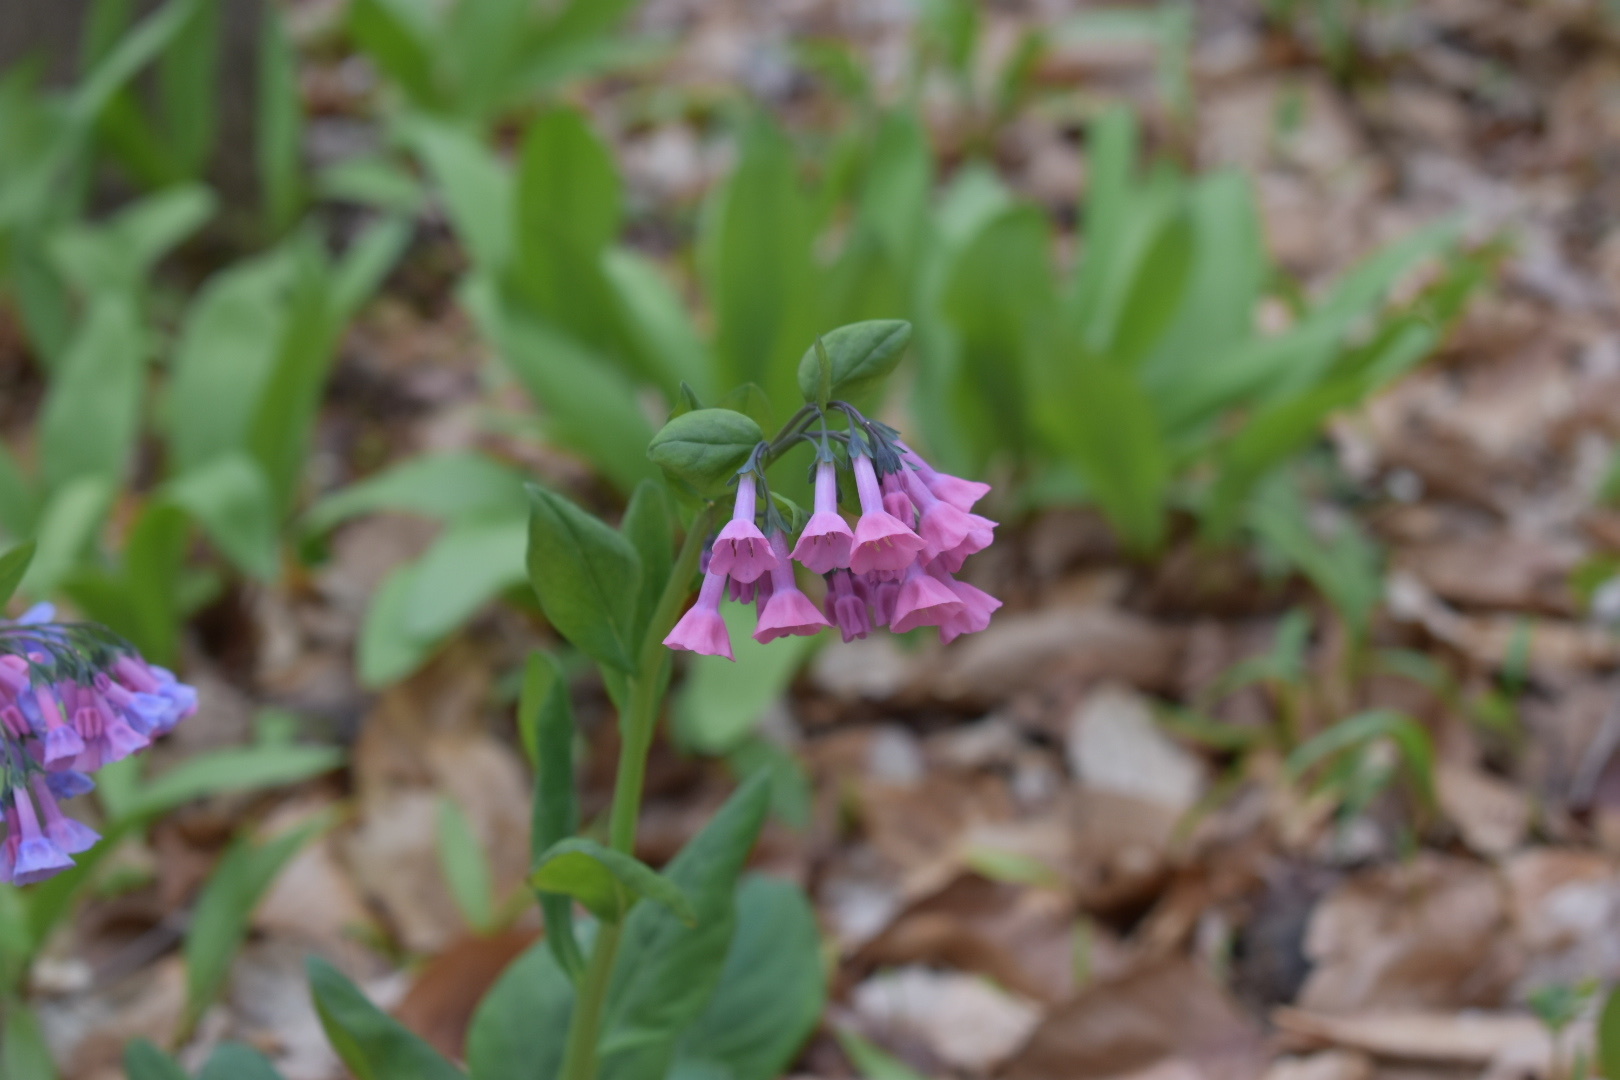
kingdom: Plantae
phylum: Tracheophyta
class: Magnoliopsida
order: Boraginales
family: Boraginaceae
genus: Mertensia
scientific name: Mertensia virginica
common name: Virginia bluebells
